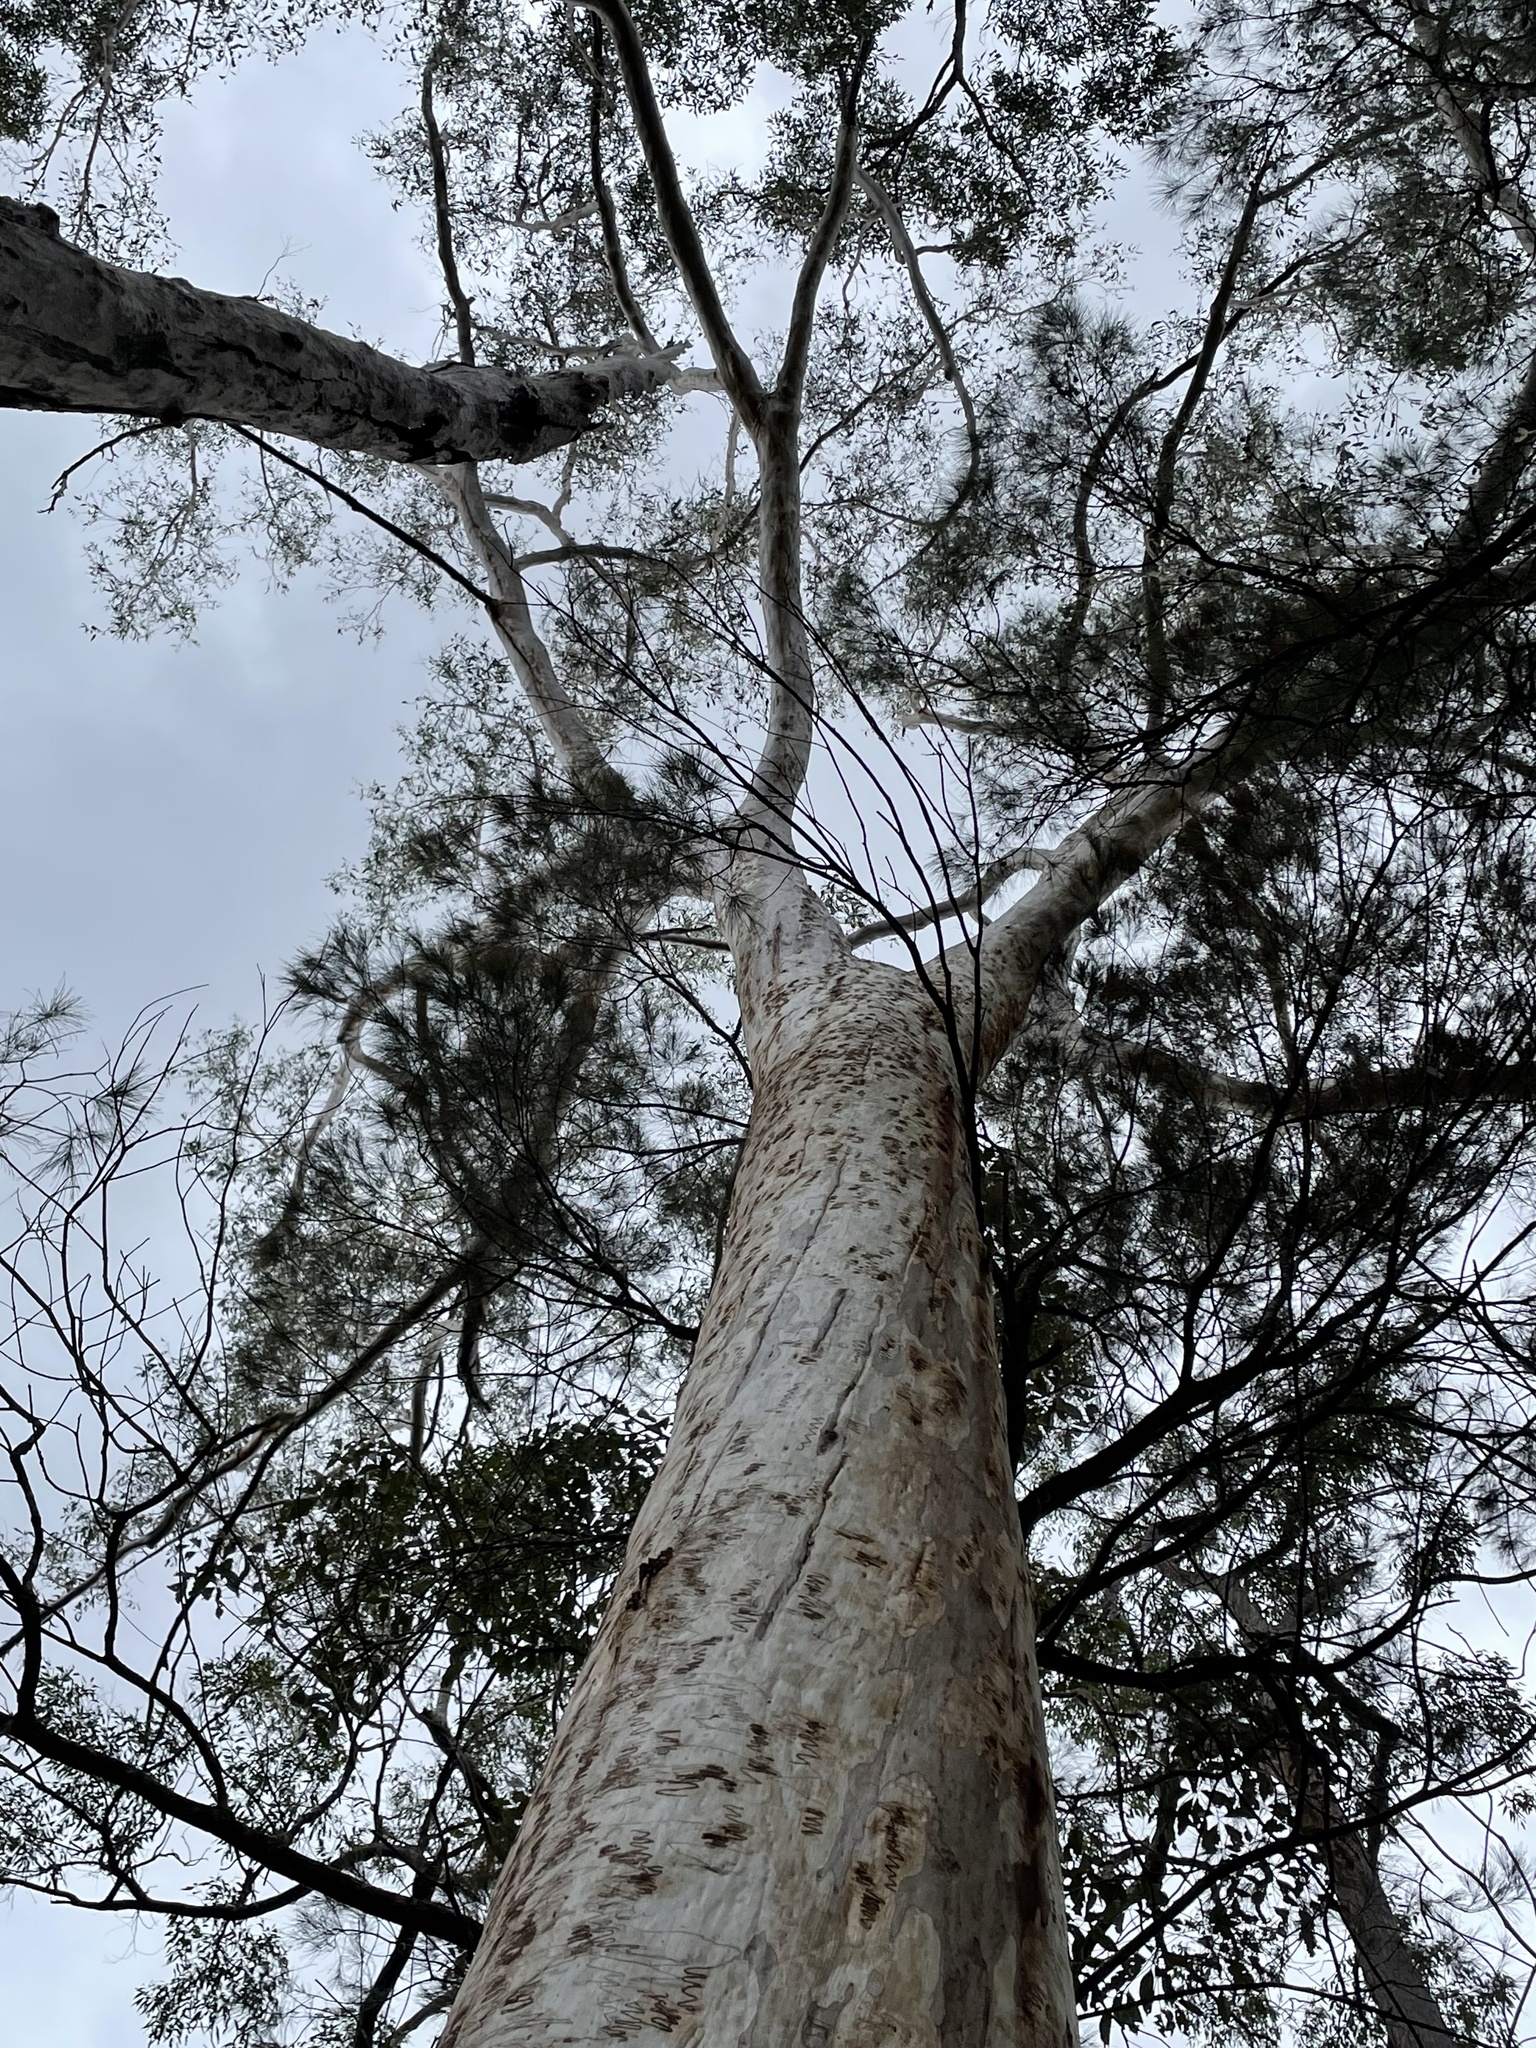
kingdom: Plantae
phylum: Tracheophyta
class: Magnoliopsida
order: Myrtales
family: Myrtaceae
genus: Eucalyptus
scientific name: Eucalyptus racemosa
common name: Scribbly gum
